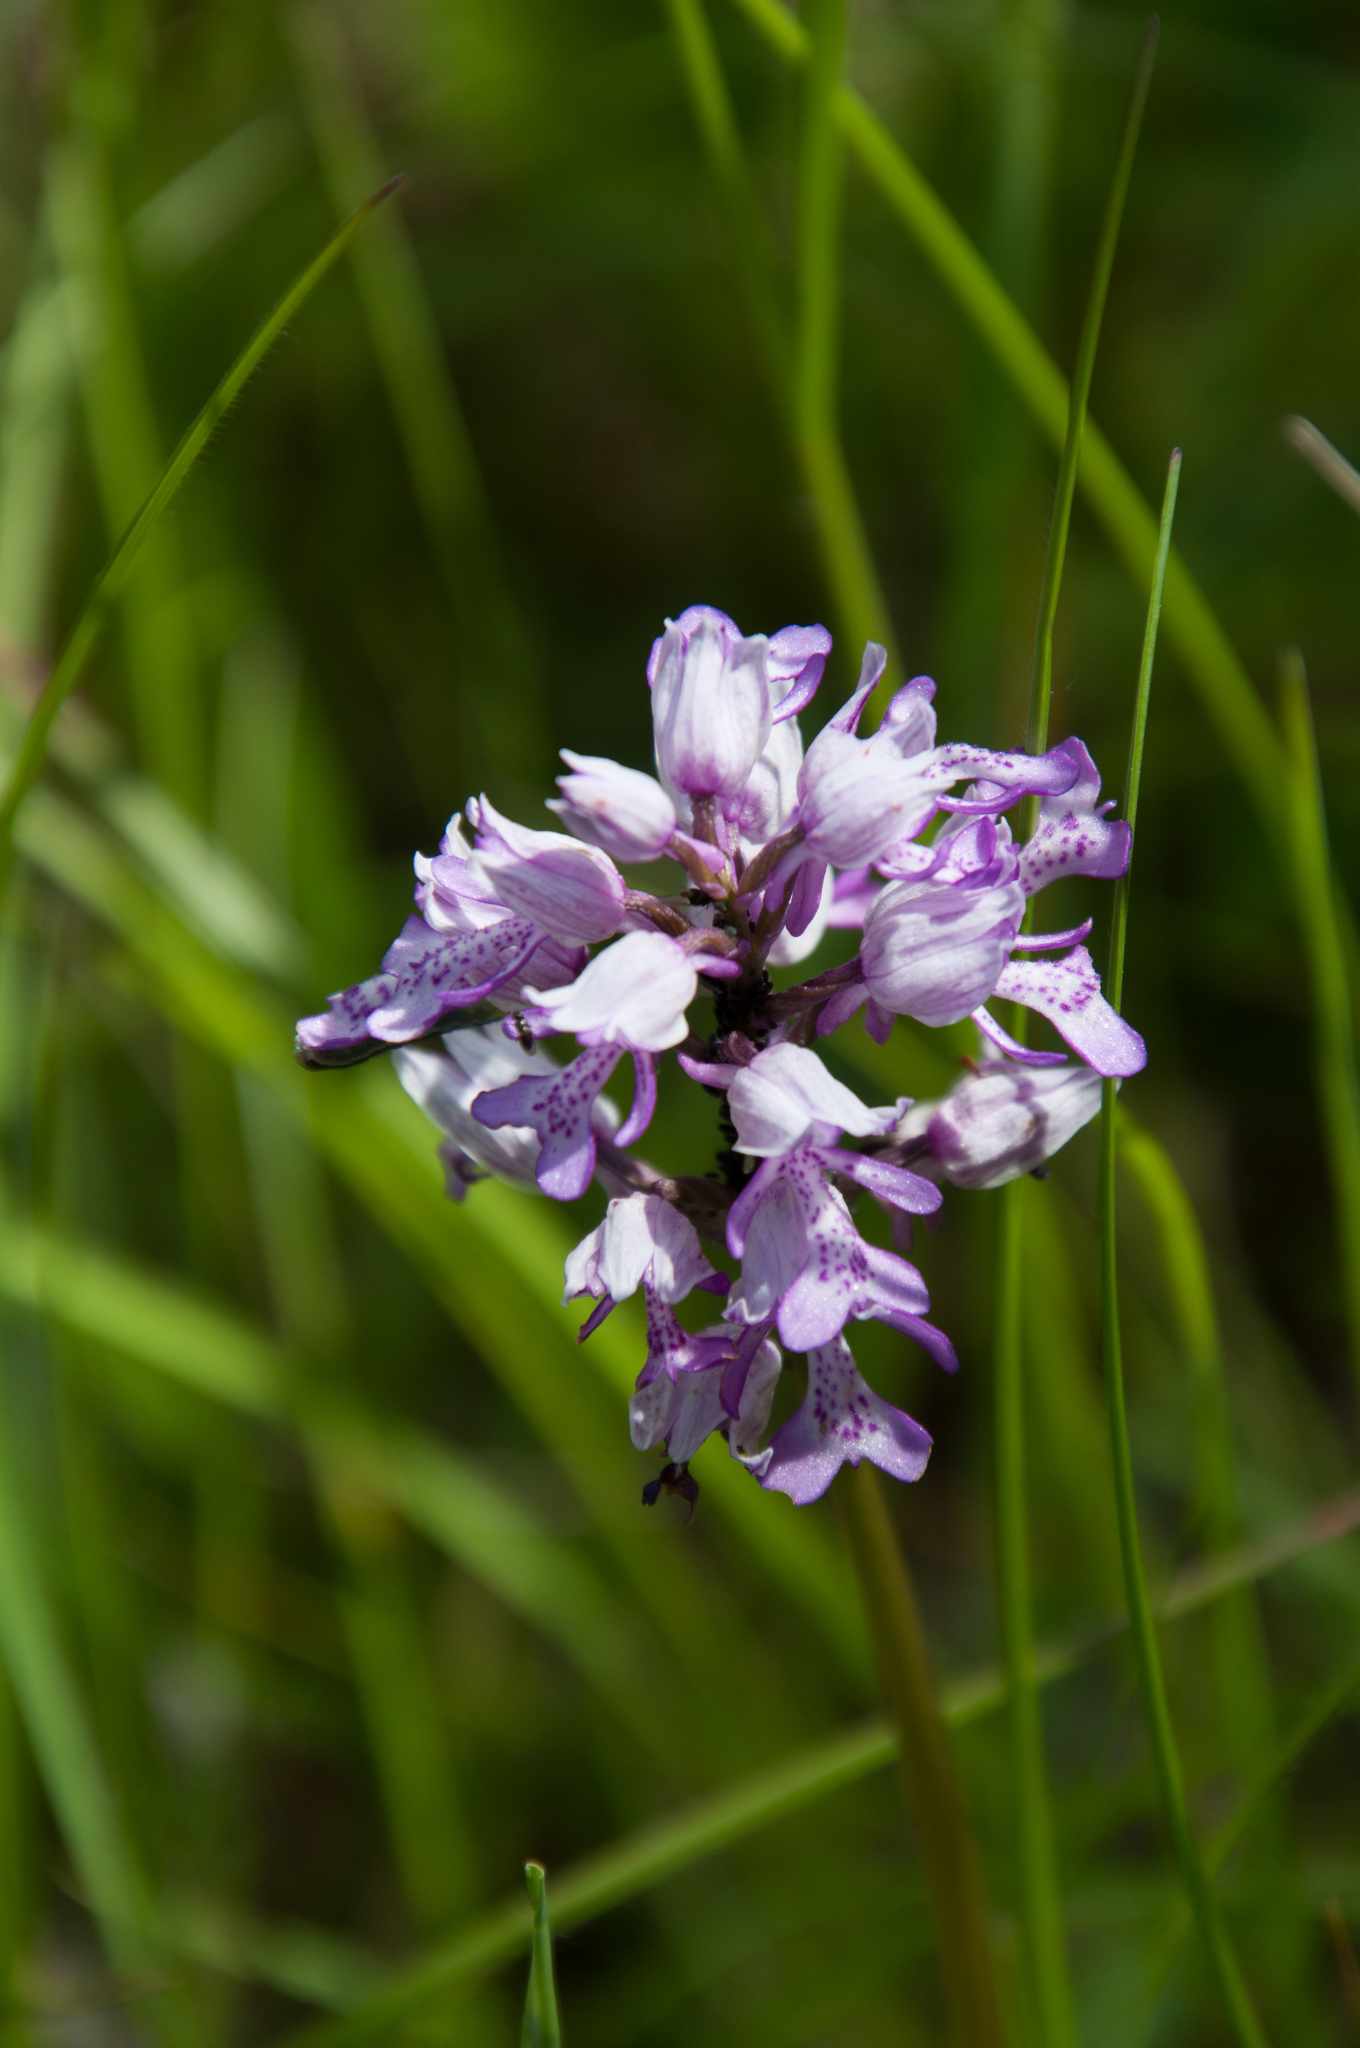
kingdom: Plantae
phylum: Tracheophyta
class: Liliopsida
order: Asparagales
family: Orchidaceae
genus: Orchis
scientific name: Orchis militaris
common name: Military orchid
